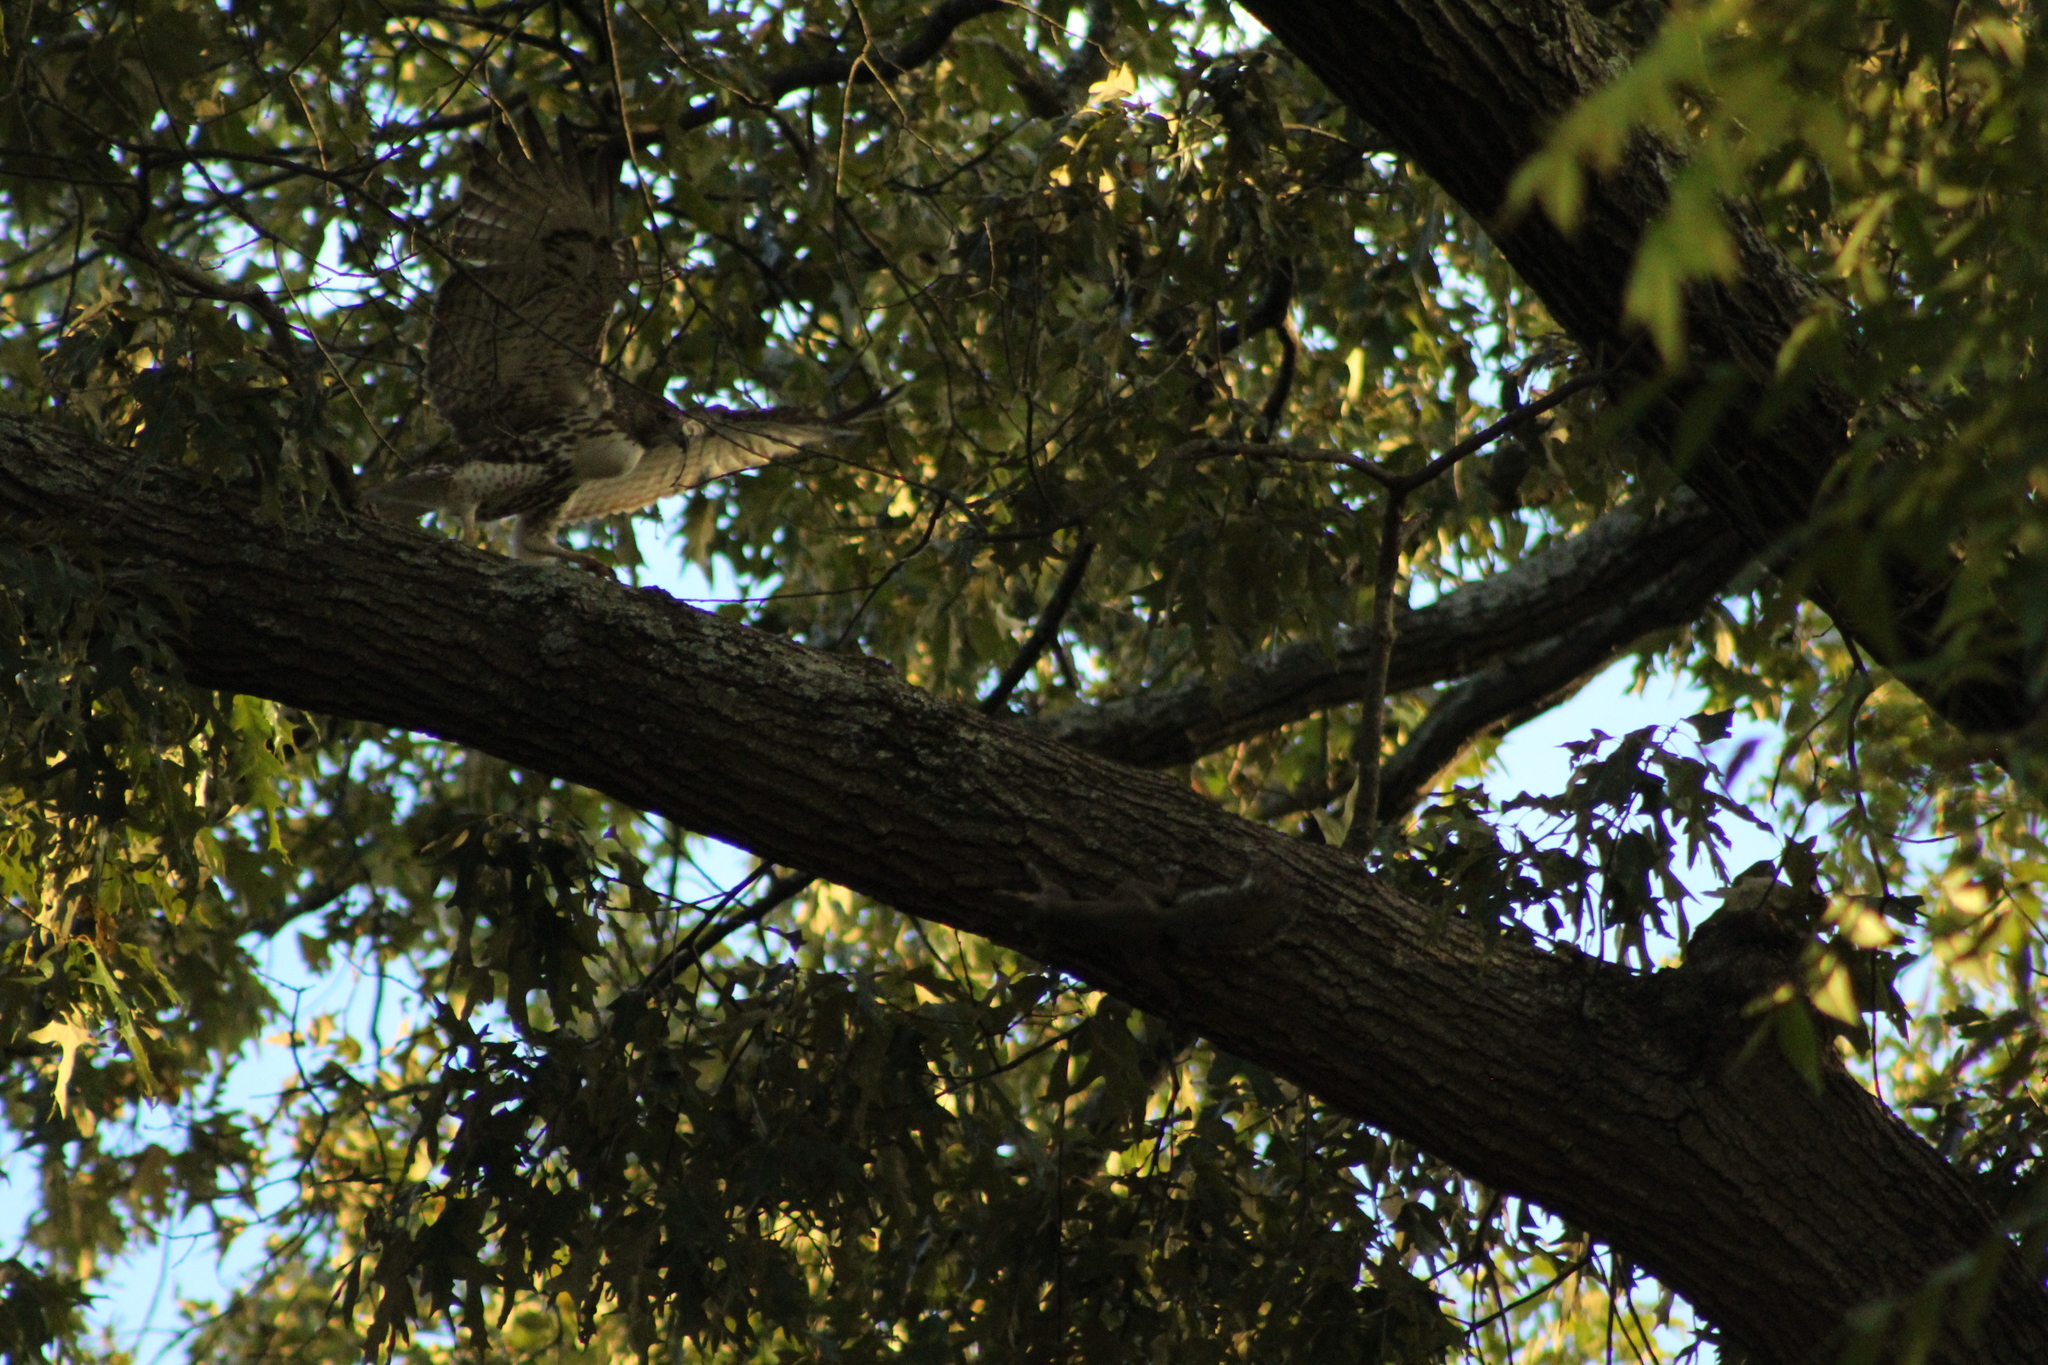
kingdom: Animalia
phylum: Chordata
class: Aves
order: Accipitriformes
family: Accipitridae
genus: Buteo
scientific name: Buteo jamaicensis
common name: Red-tailed hawk
